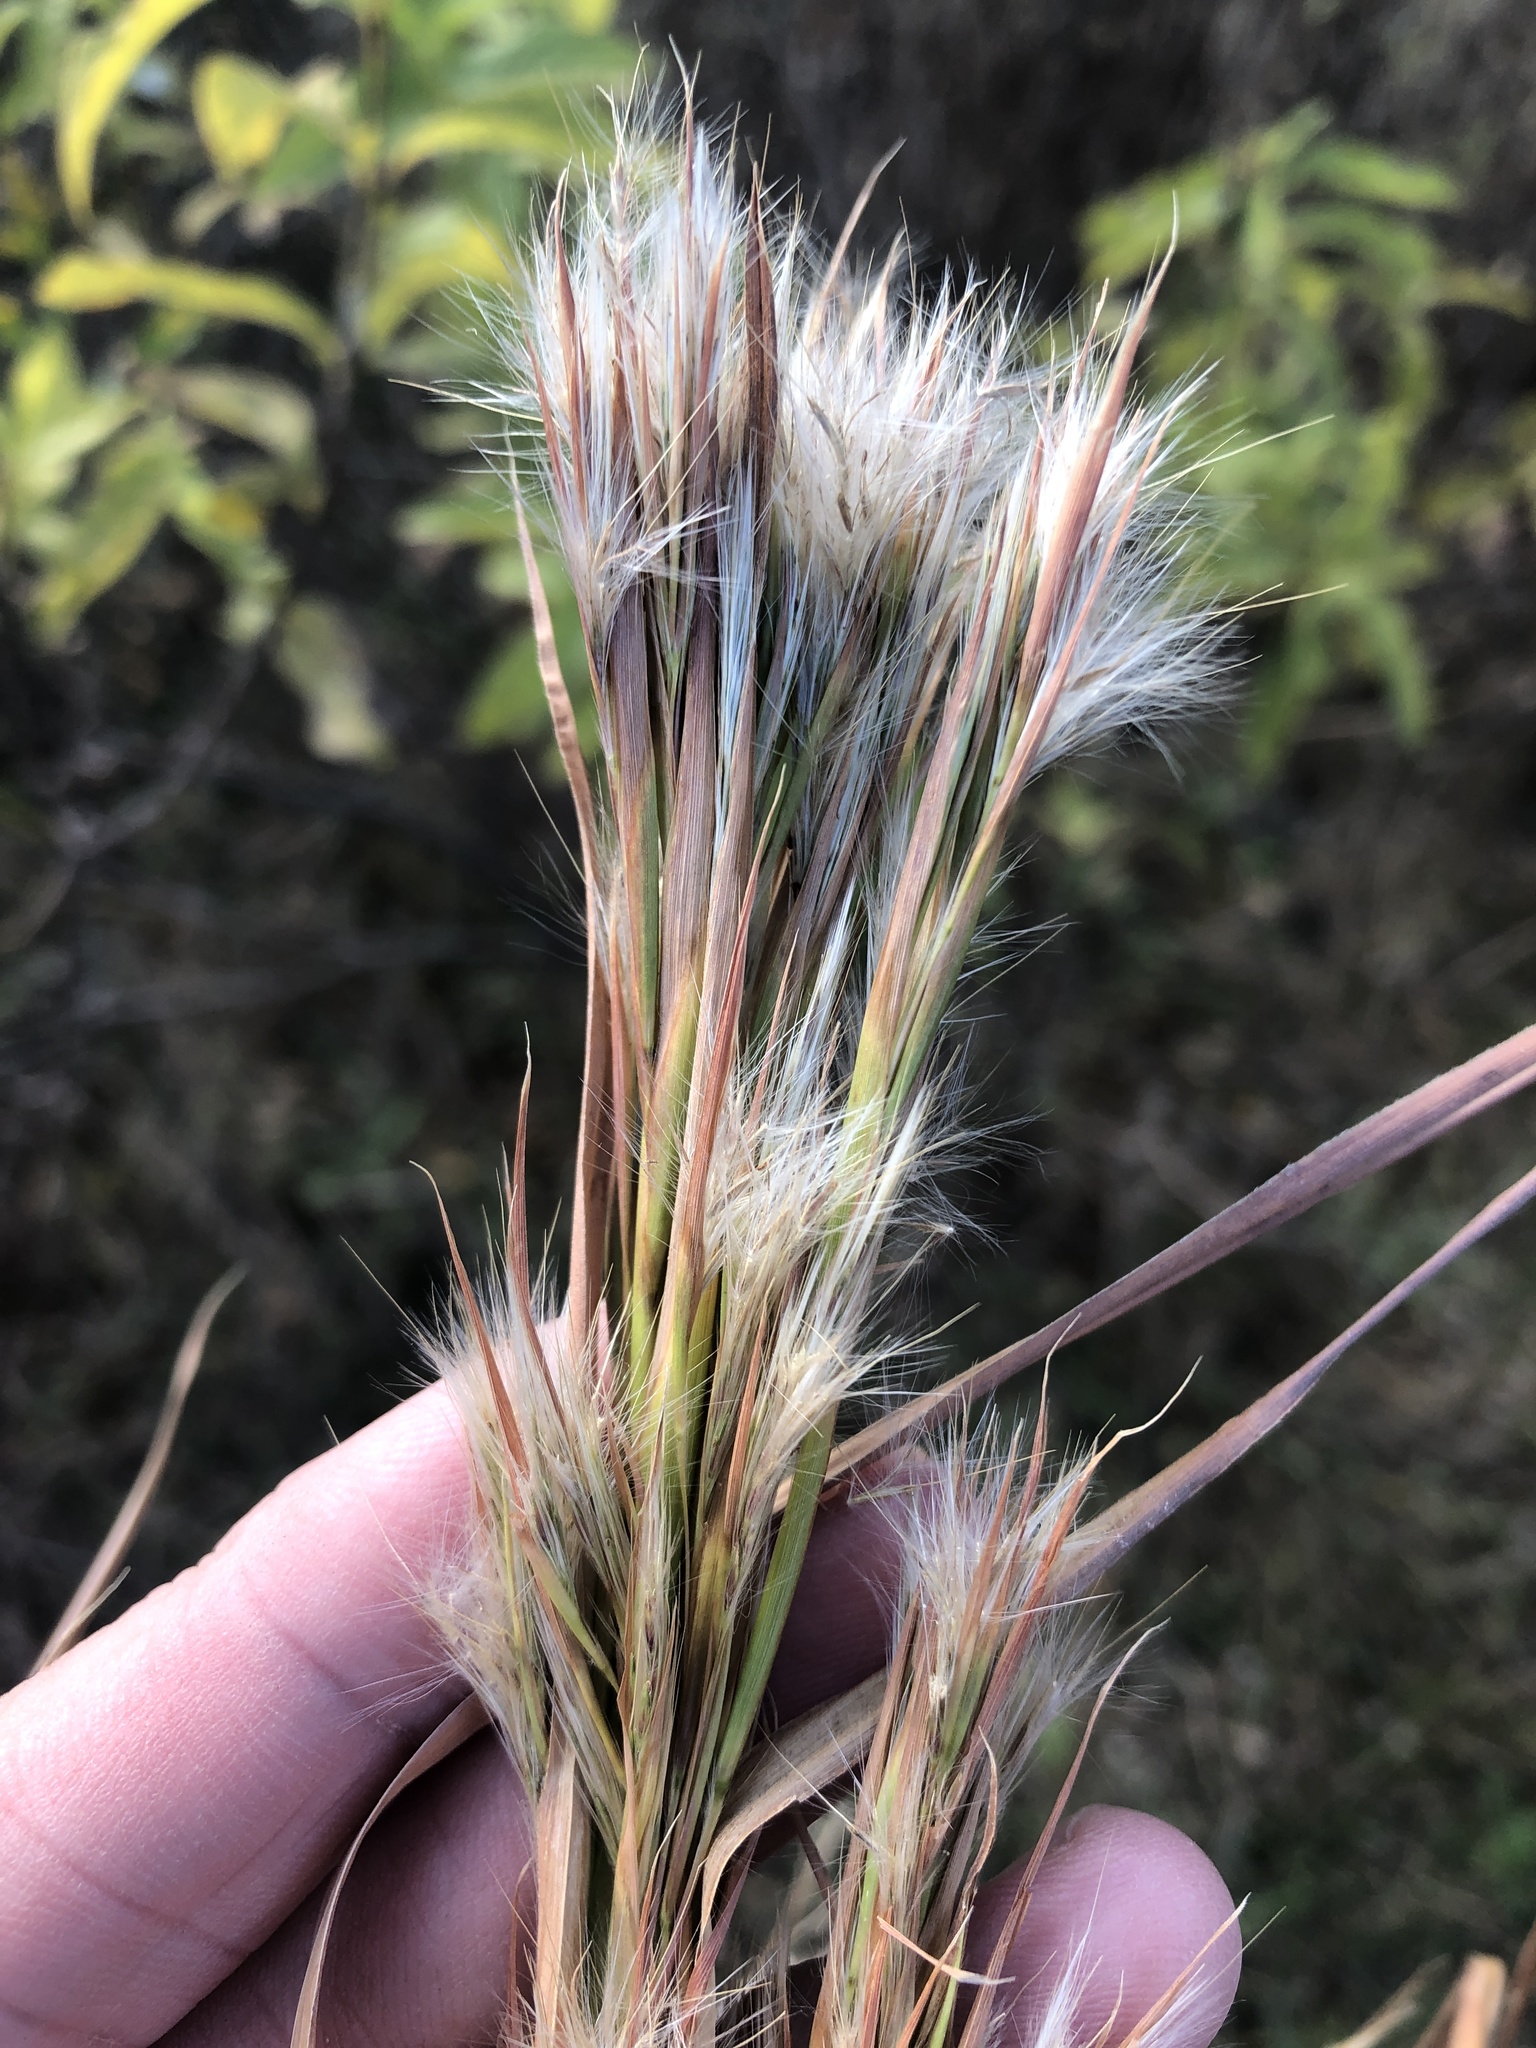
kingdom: Plantae
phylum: Tracheophyta
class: Liliopsida
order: Poales
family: Poaceae
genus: Andropogon
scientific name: Andropogon tenuispatheus
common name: Bushy bluestem
